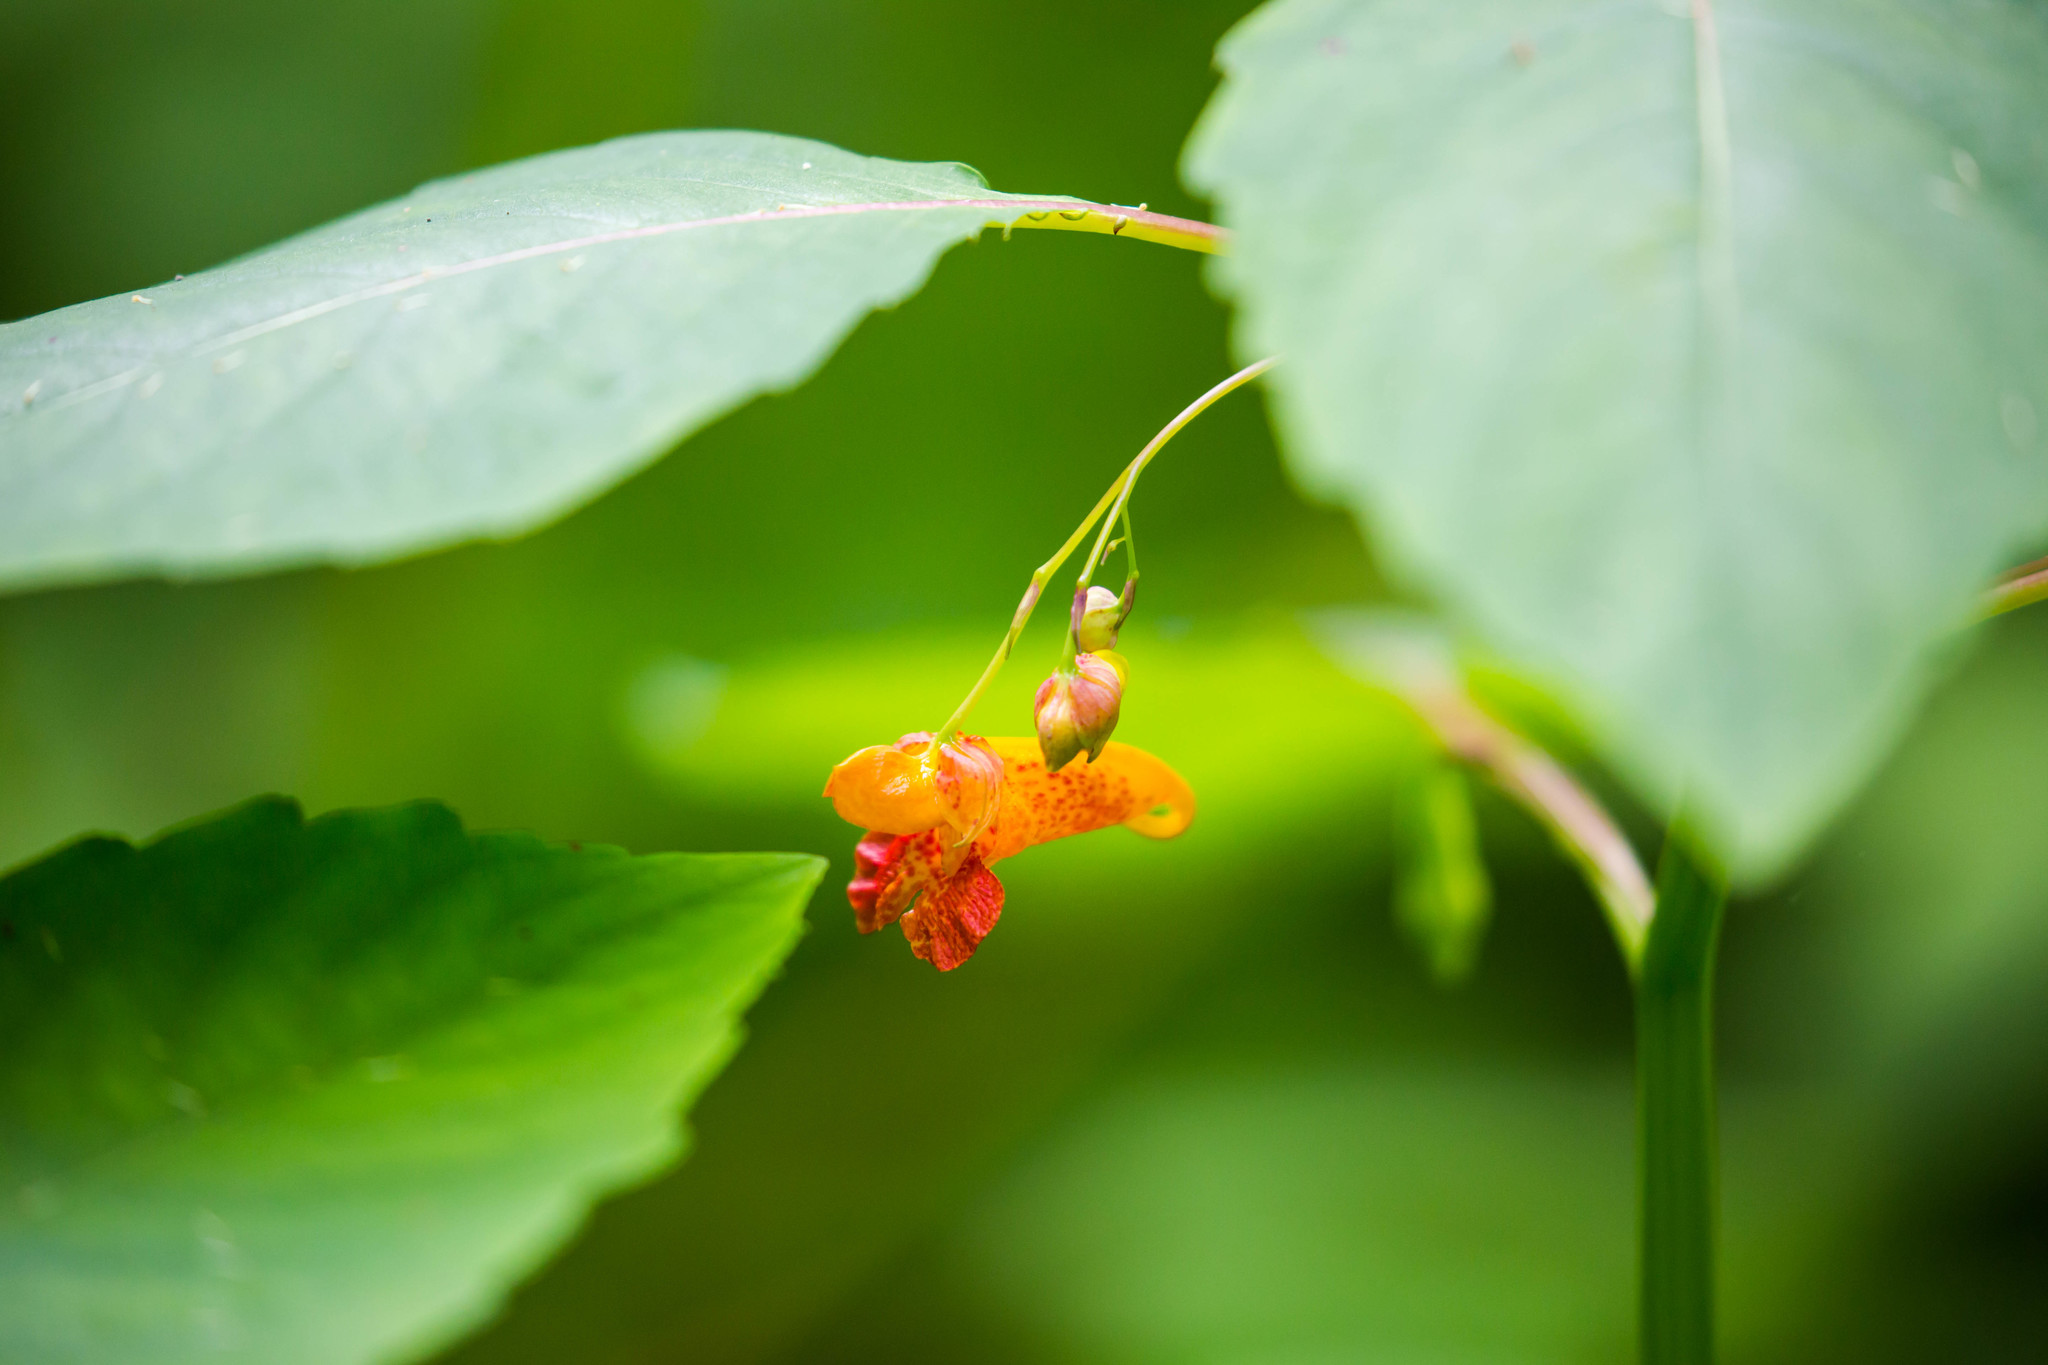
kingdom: Plantae
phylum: Tracheophyta
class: Magnoliopsida
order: Ericales
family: Balsaminaceae
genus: Impatiens
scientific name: Impatiens capensis
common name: Orange balsam
